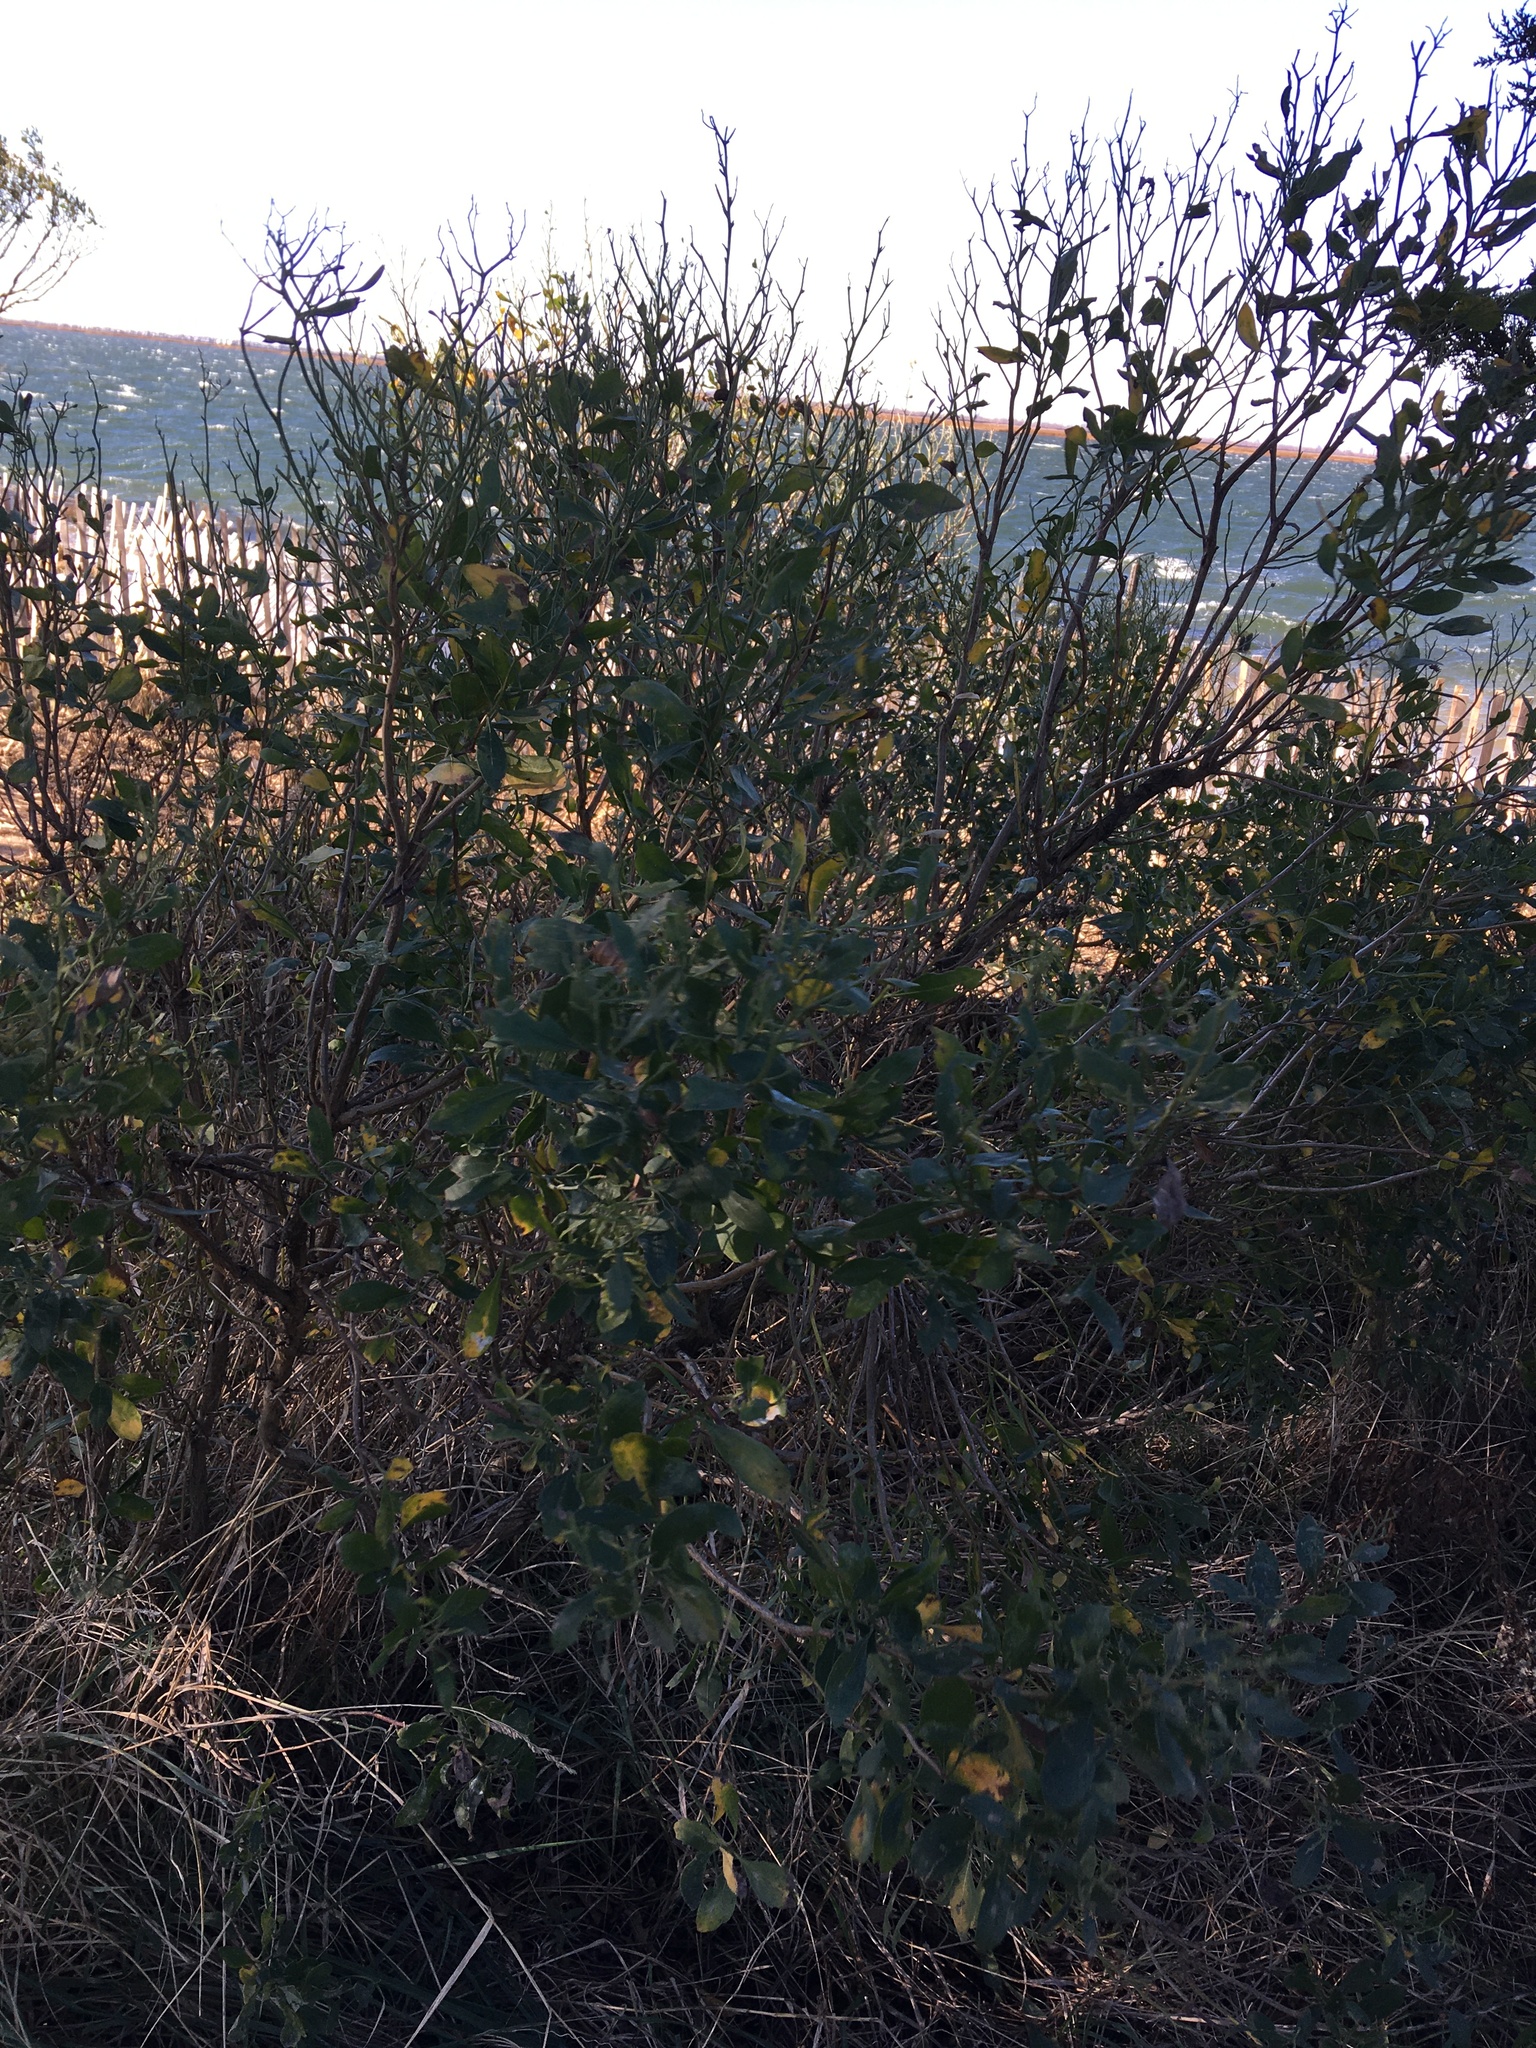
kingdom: Plantae
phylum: Tracheophyta
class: Magnoliopsida
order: Asterales
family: Asteraceae
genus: Baccharis
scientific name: Baccharis halimifolia
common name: Eastern baccharis
